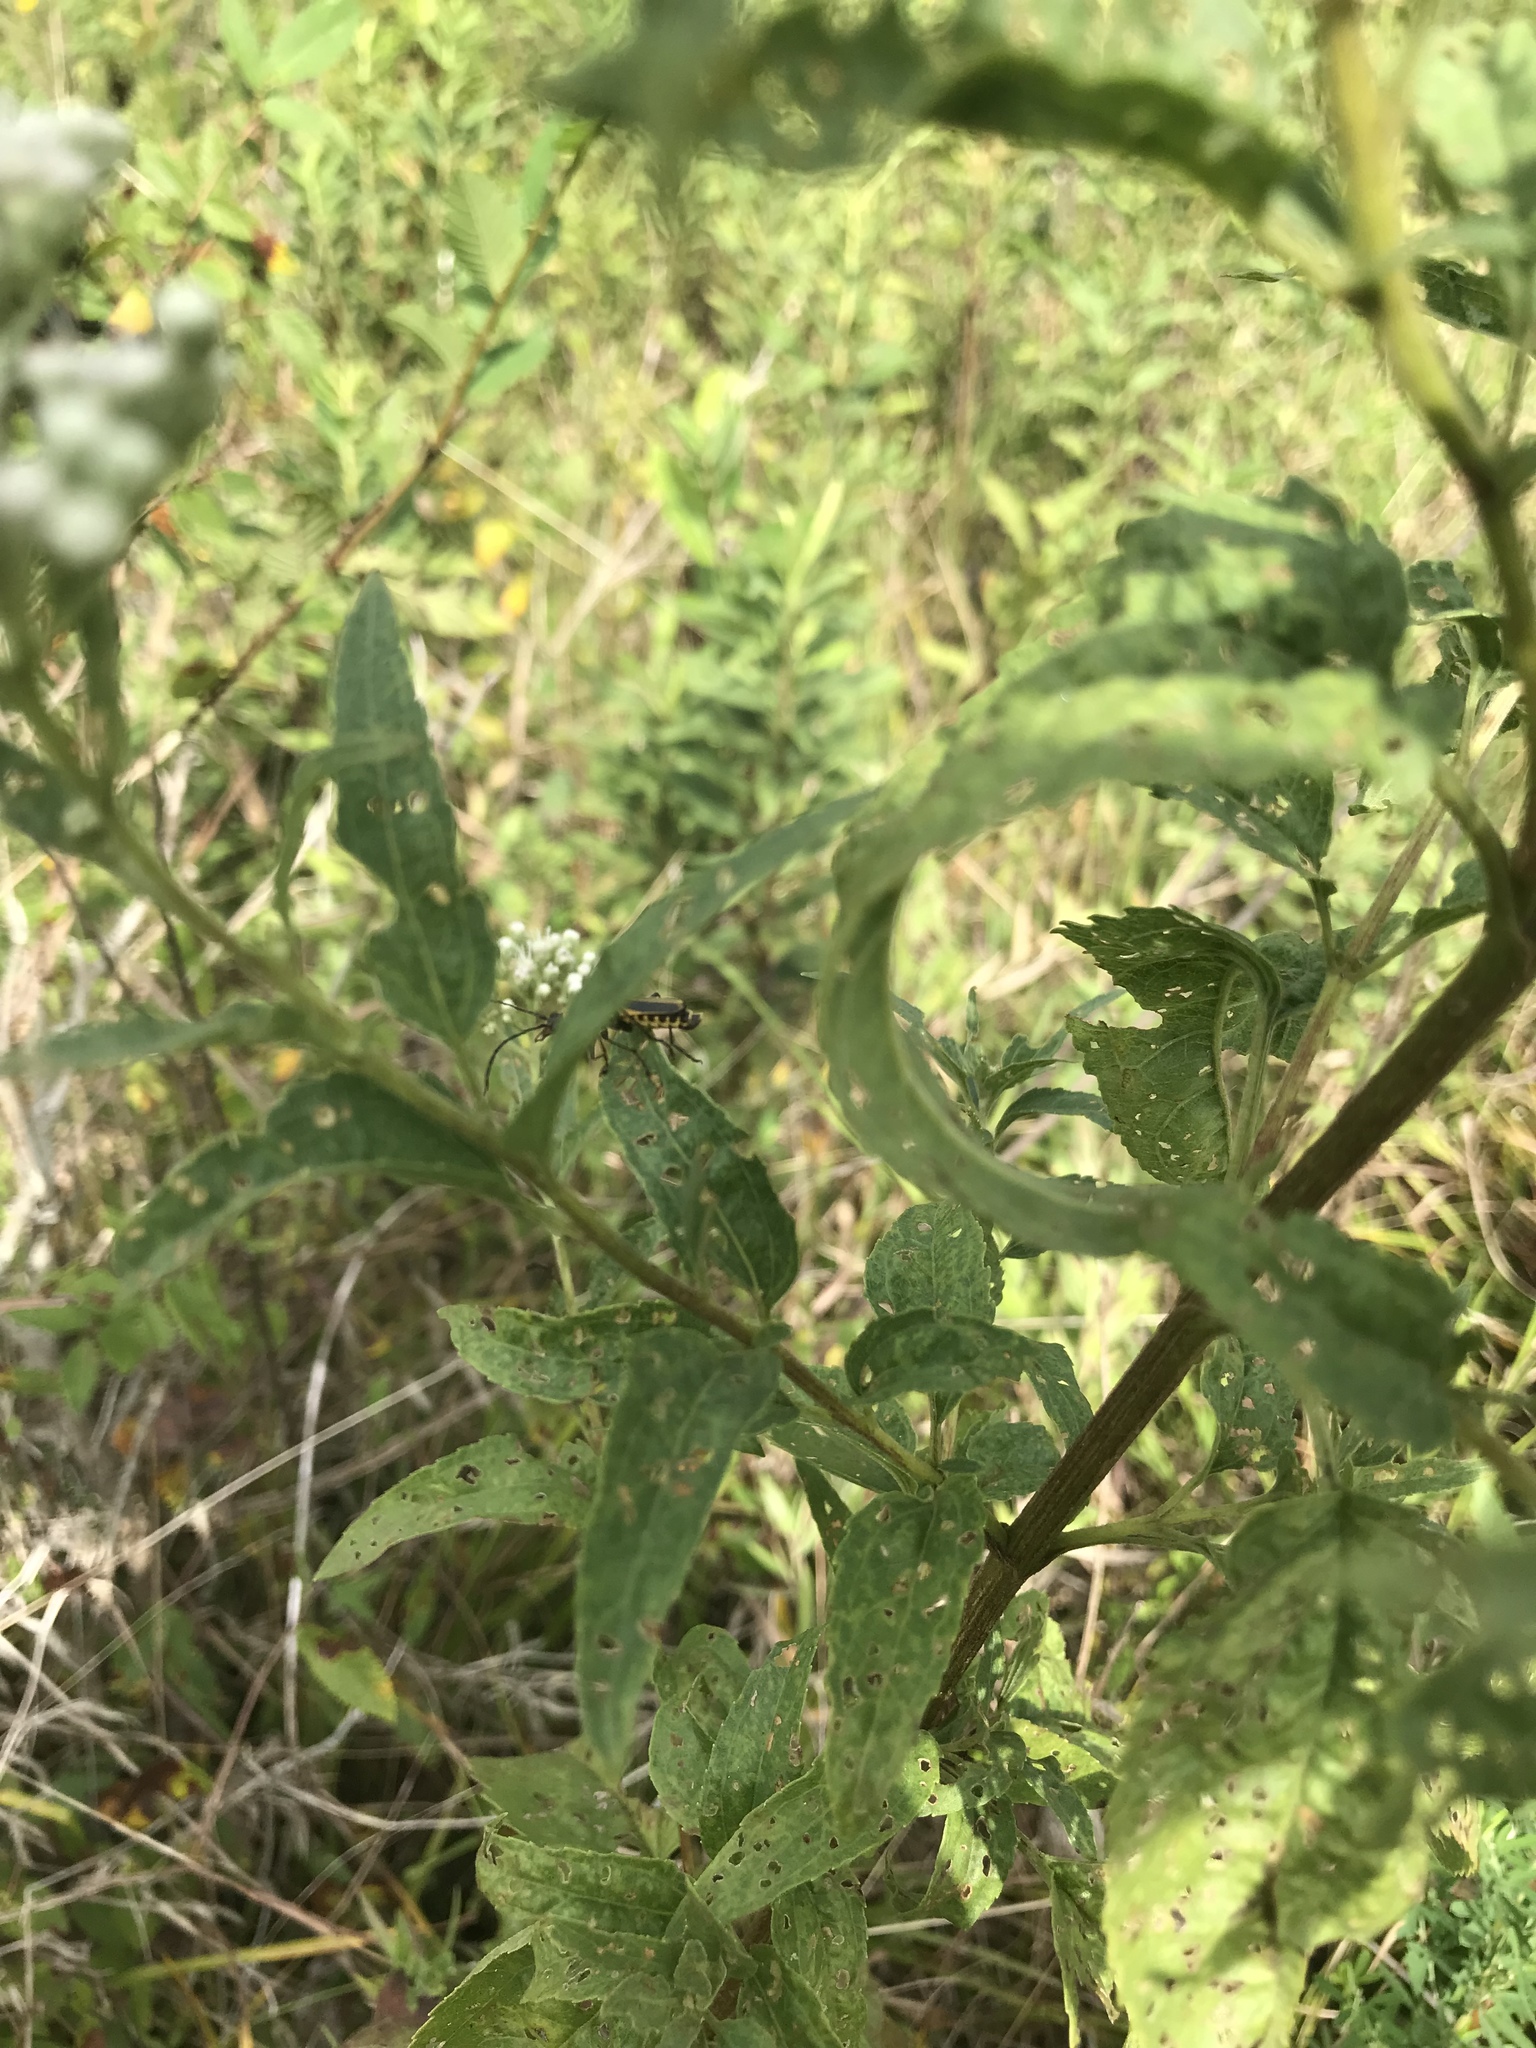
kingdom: Plantae
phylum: Tracheophyta
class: Magnoliopsida
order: Asterales
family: Asteraceae
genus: Eupatorium
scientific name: Eupatorium serotinum
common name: Late boneset
